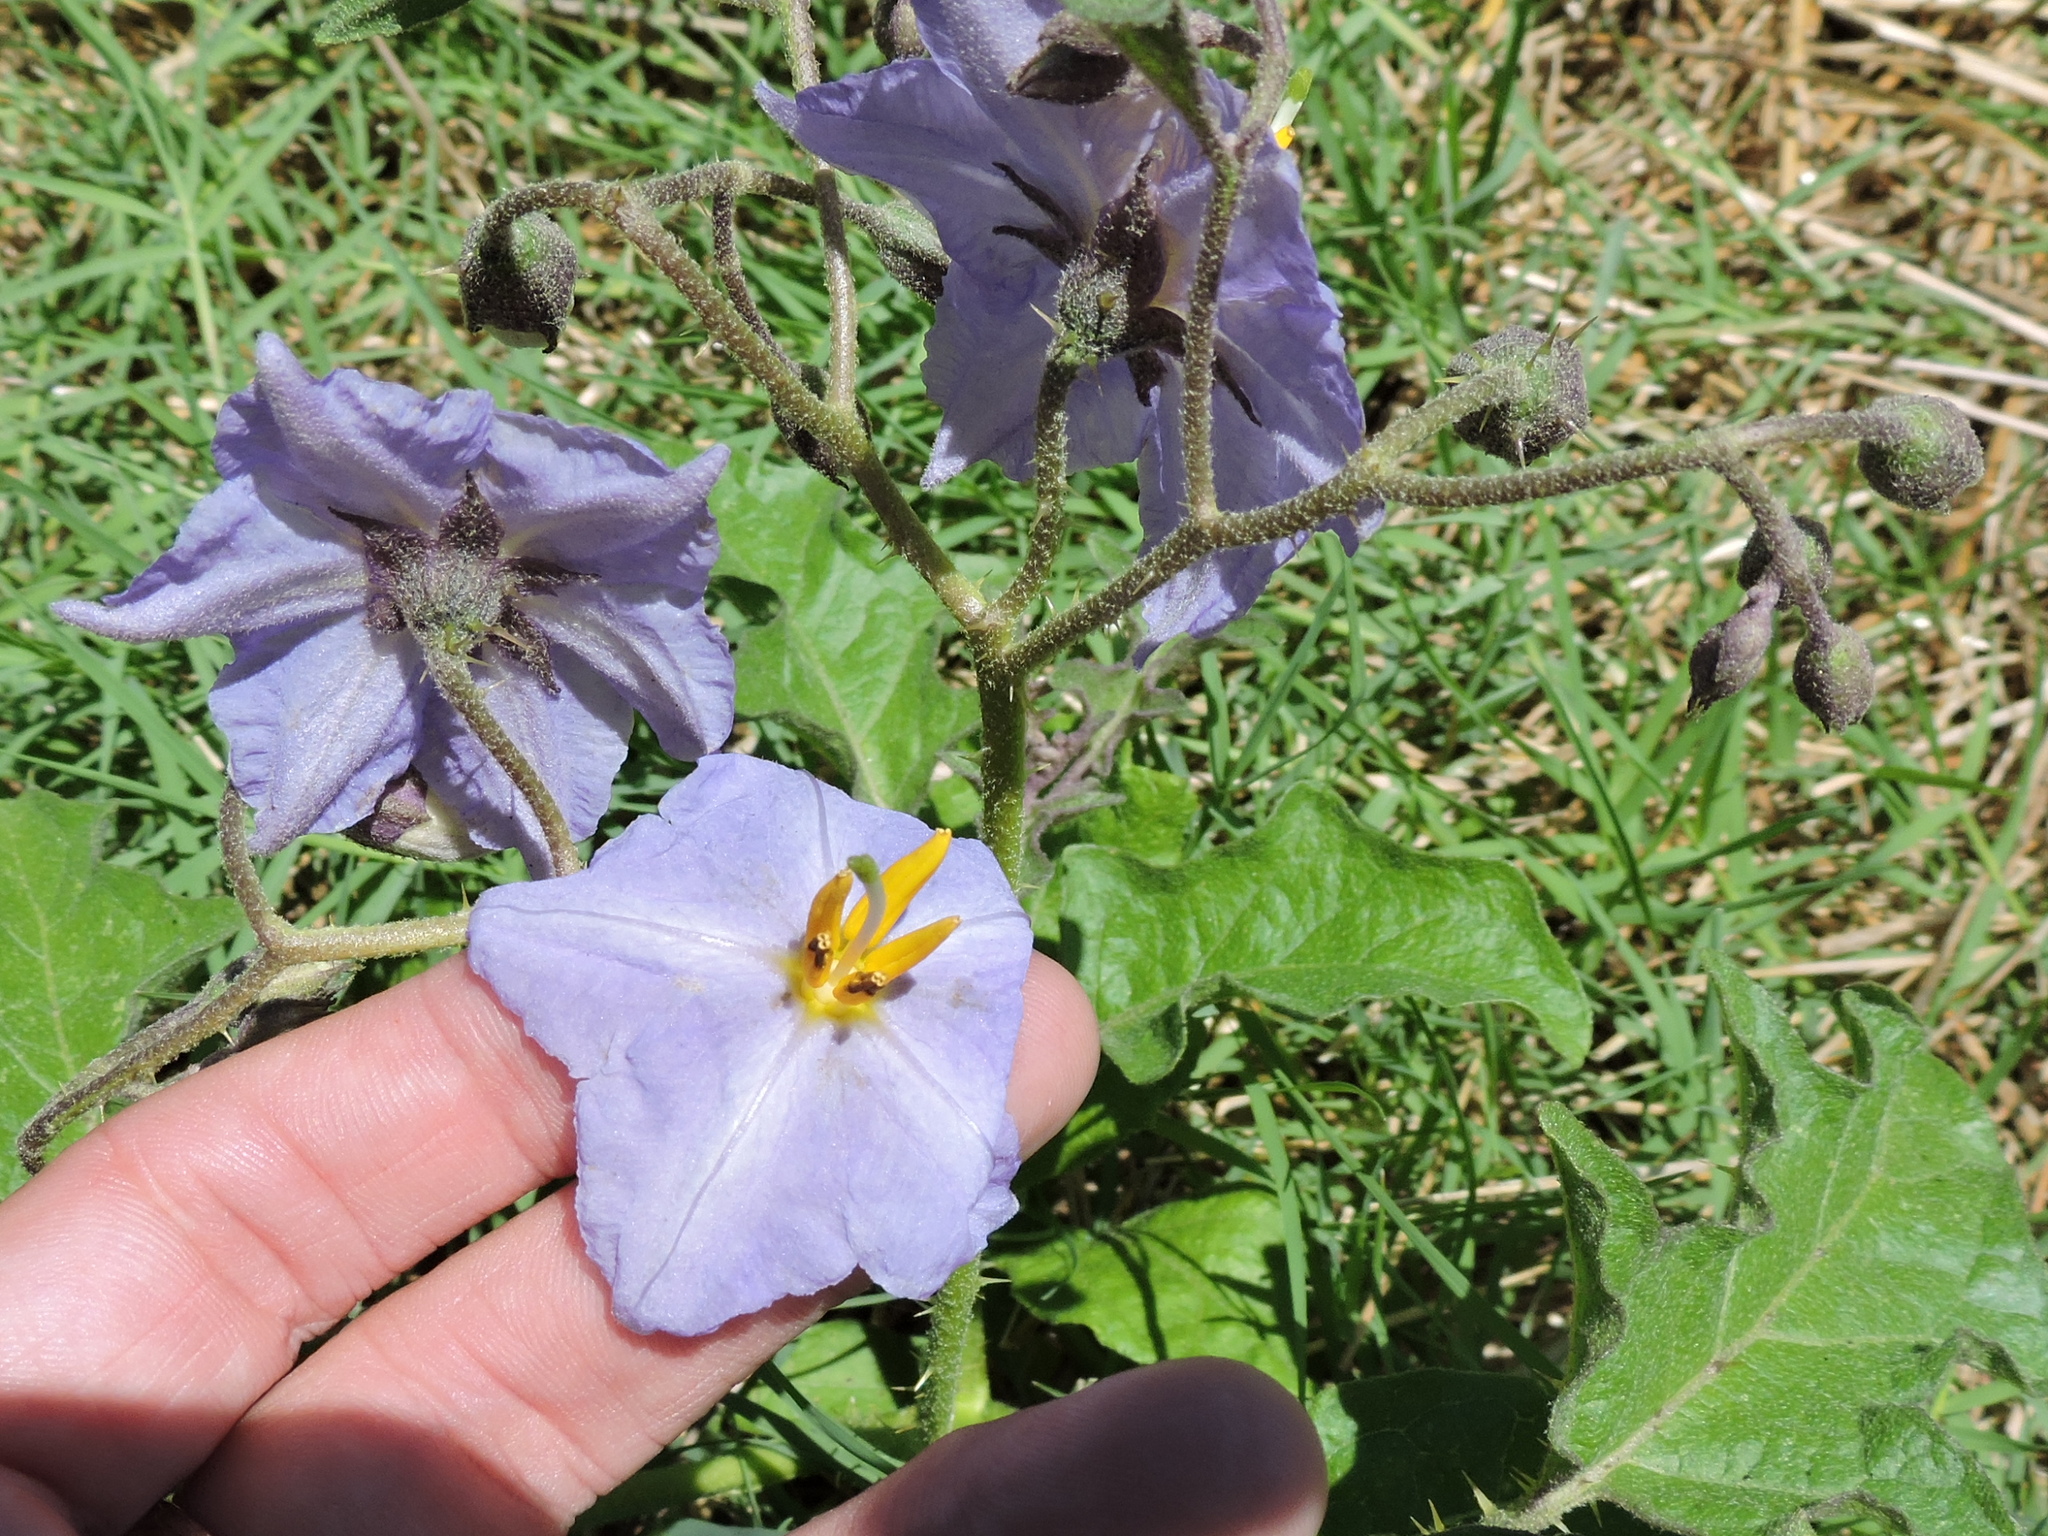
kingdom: Plantae
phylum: Tracheophyta
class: Magnoliopsida
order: Solanales
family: Solanaceae
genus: Solanum
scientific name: Solanum dimidiatum
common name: Carolina horse-nettle
